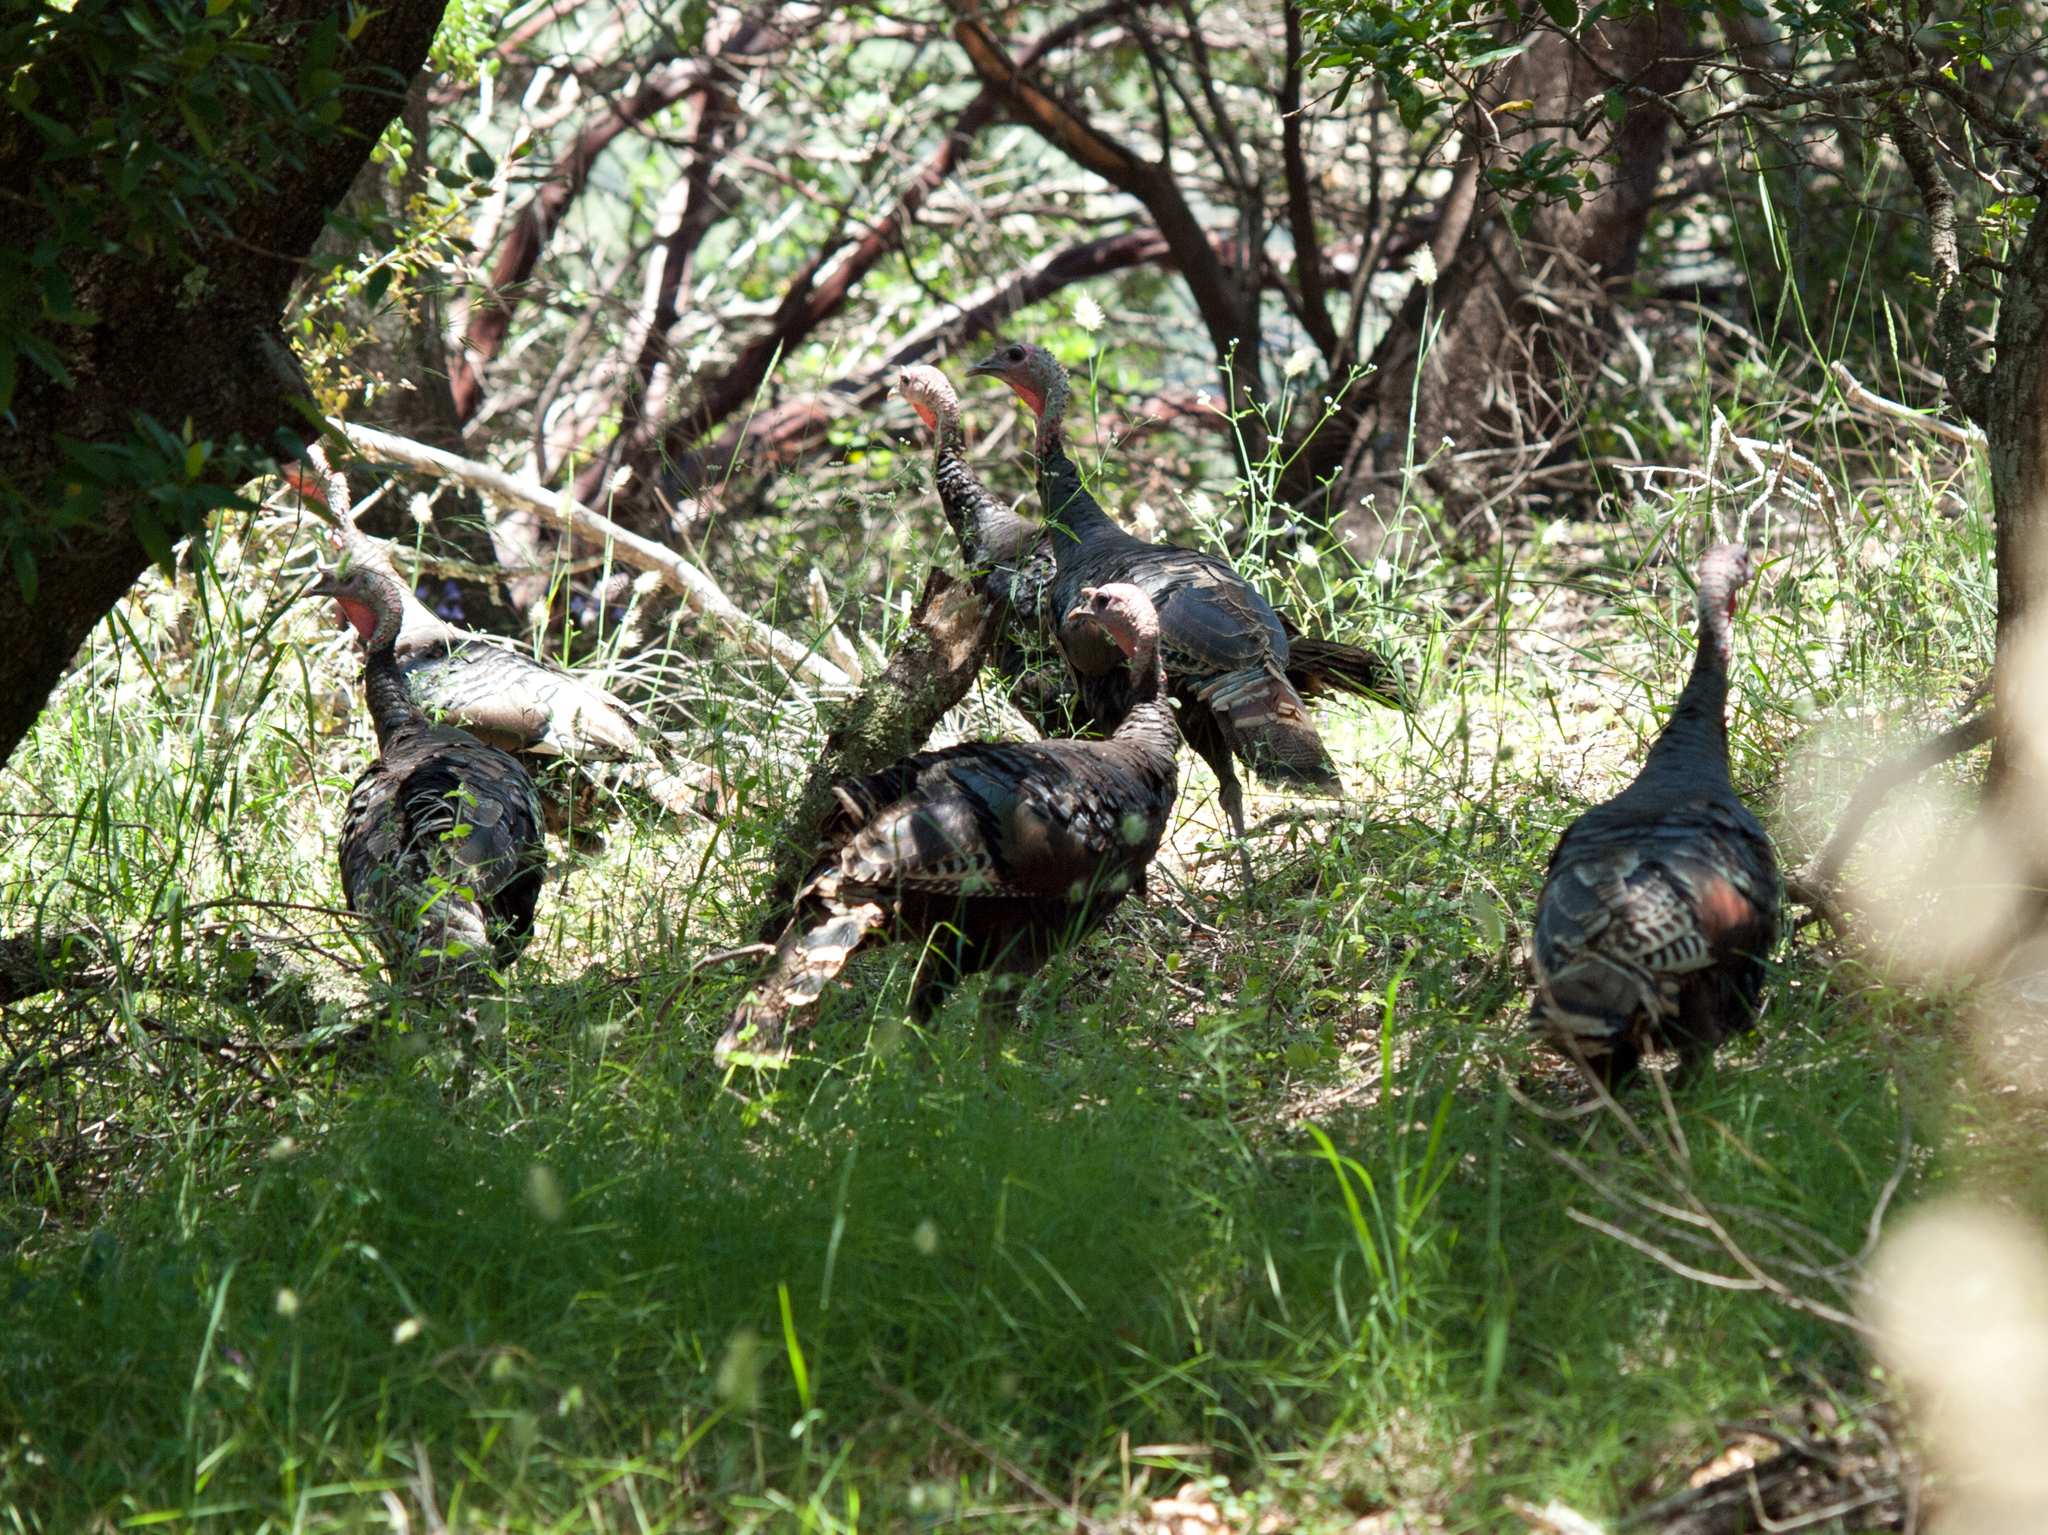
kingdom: Animalia
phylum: Chordata
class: Aves
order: Galliformes
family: Phasianidae
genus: Meleagris
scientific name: Meleagris gallopavo
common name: Wild turkey
